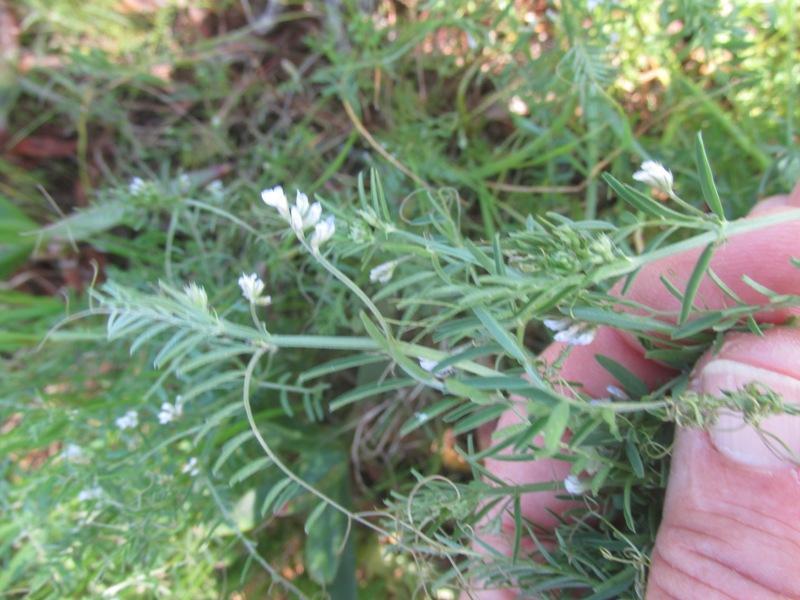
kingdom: Plantae
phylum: Tracheophyta
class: Magnoliopsida
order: Fabales
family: Fabaceae
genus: Vicia
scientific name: Vicia hirsuta
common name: Tiny vetch
